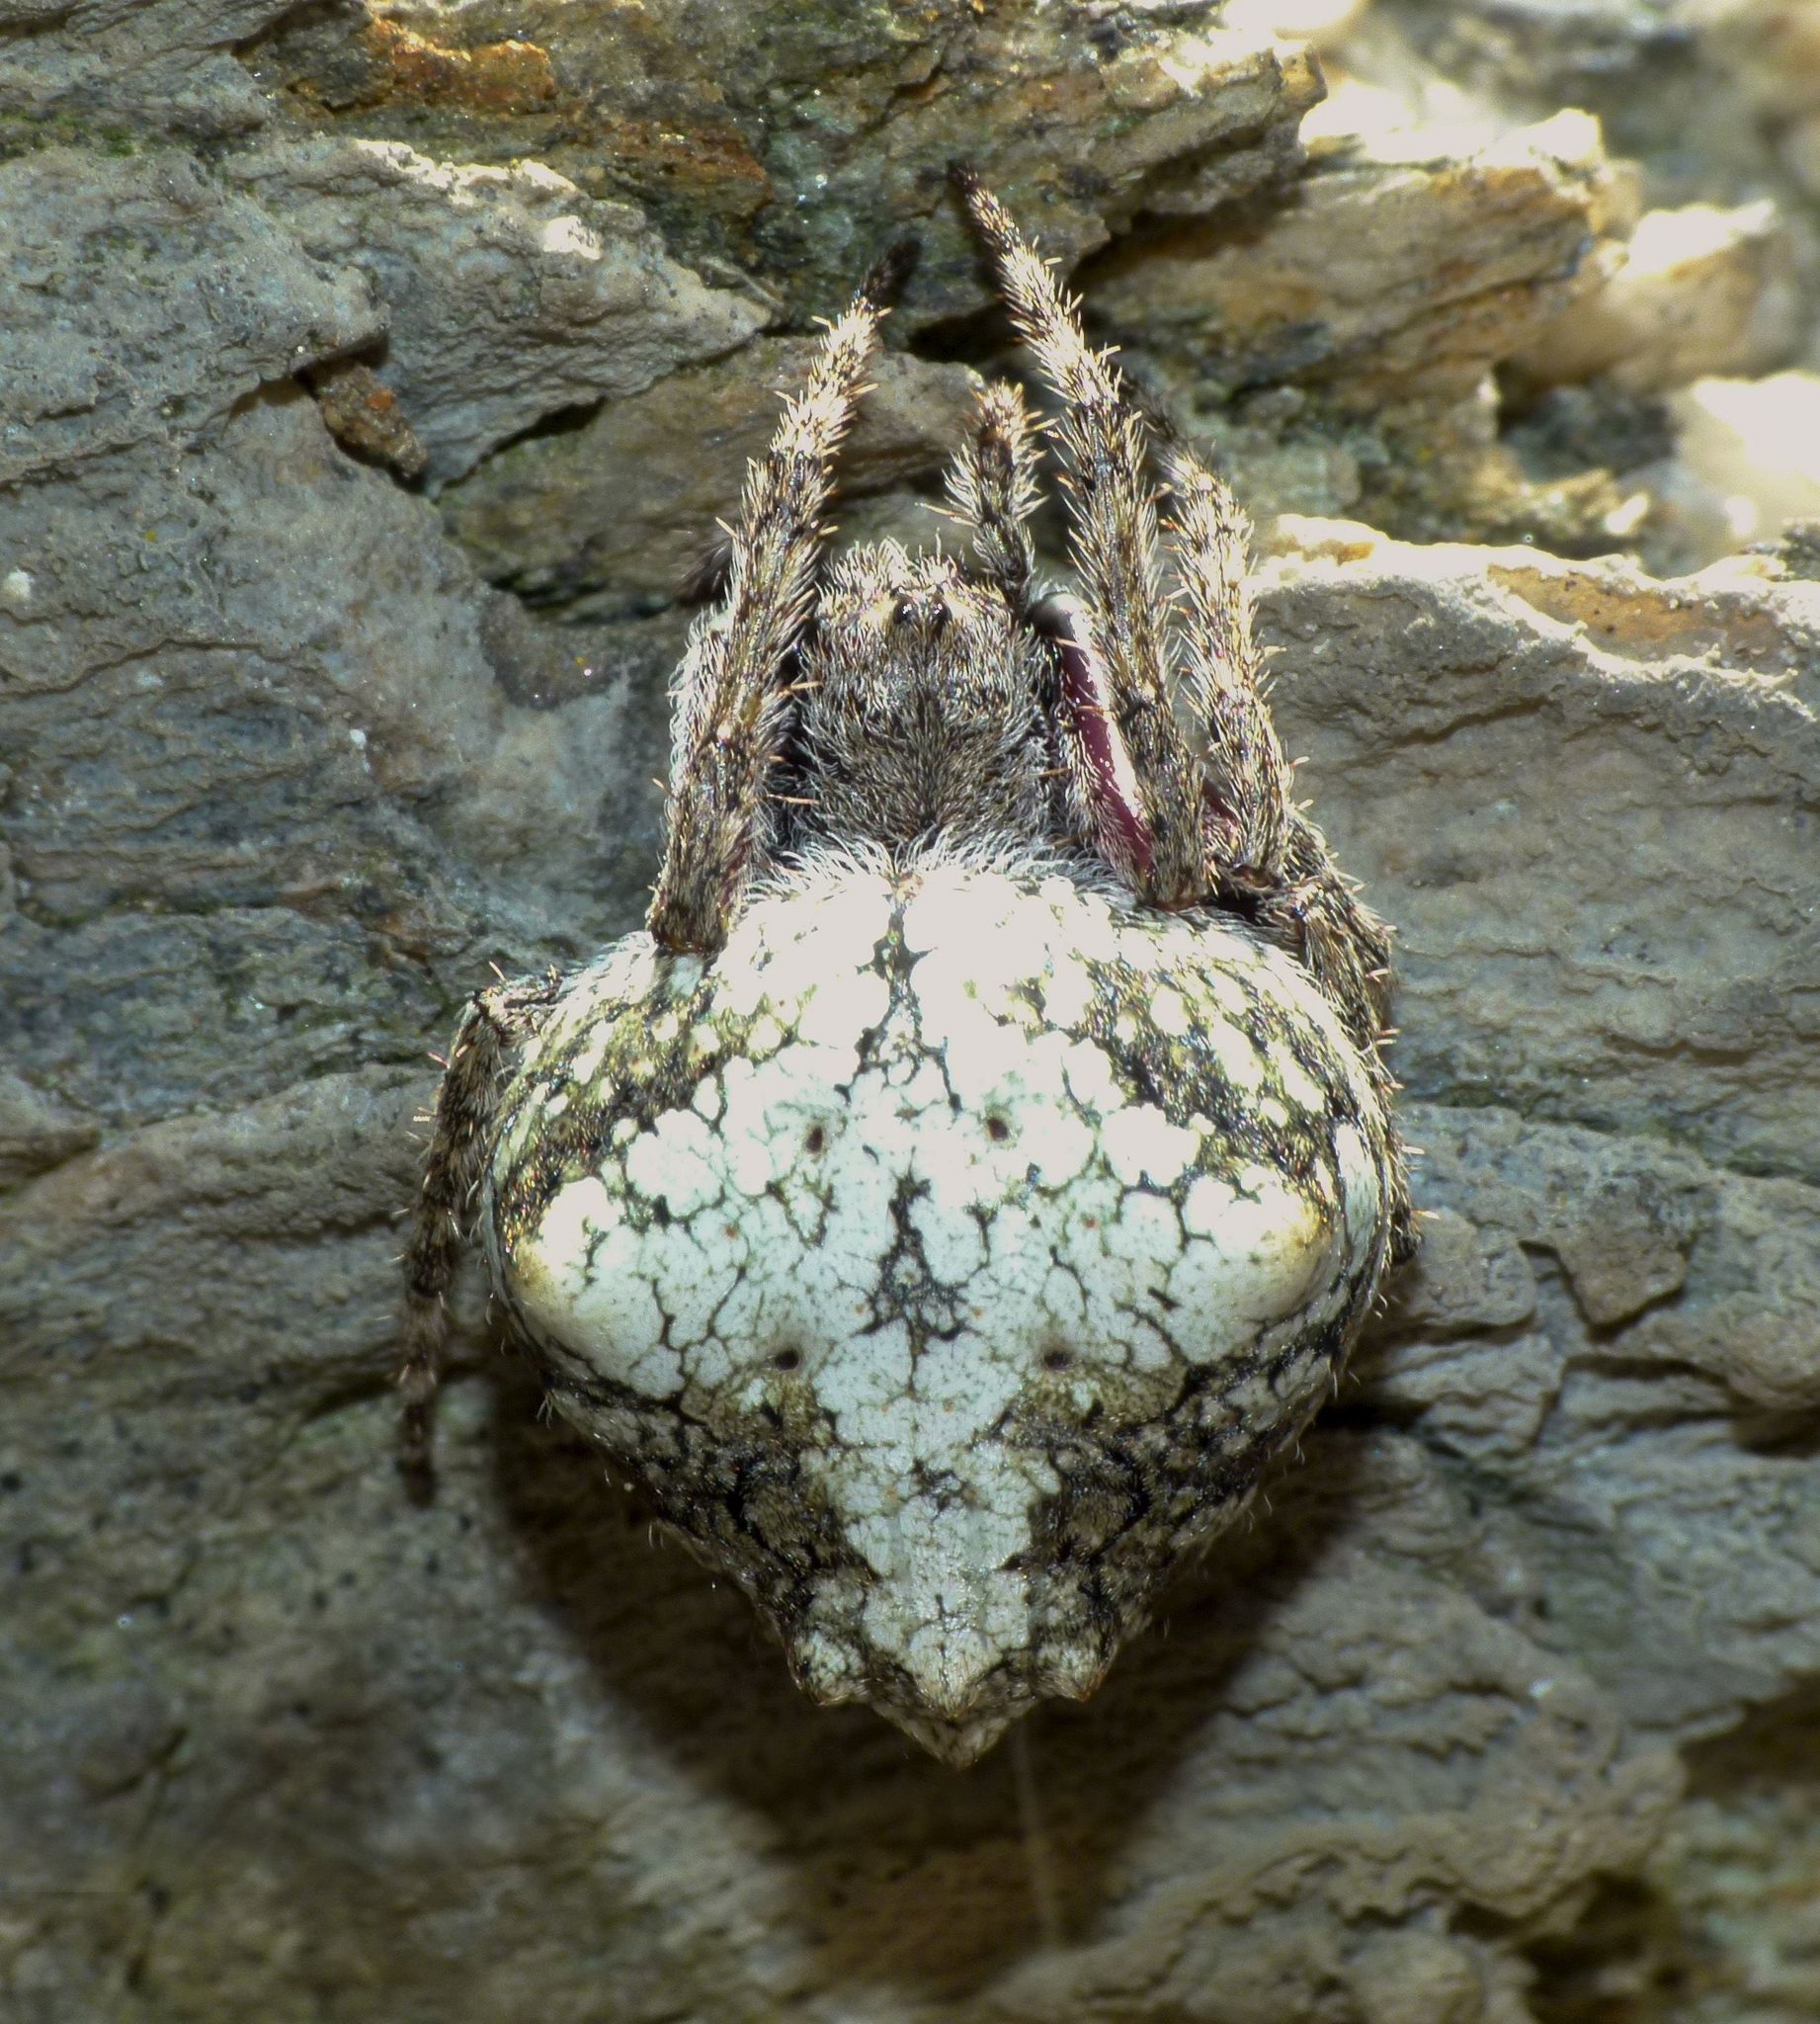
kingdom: Animalia
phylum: Arthropoda
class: Arachnida
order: Araneae
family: Araneidae
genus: Eriophora
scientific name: Eriophora pustulosa
